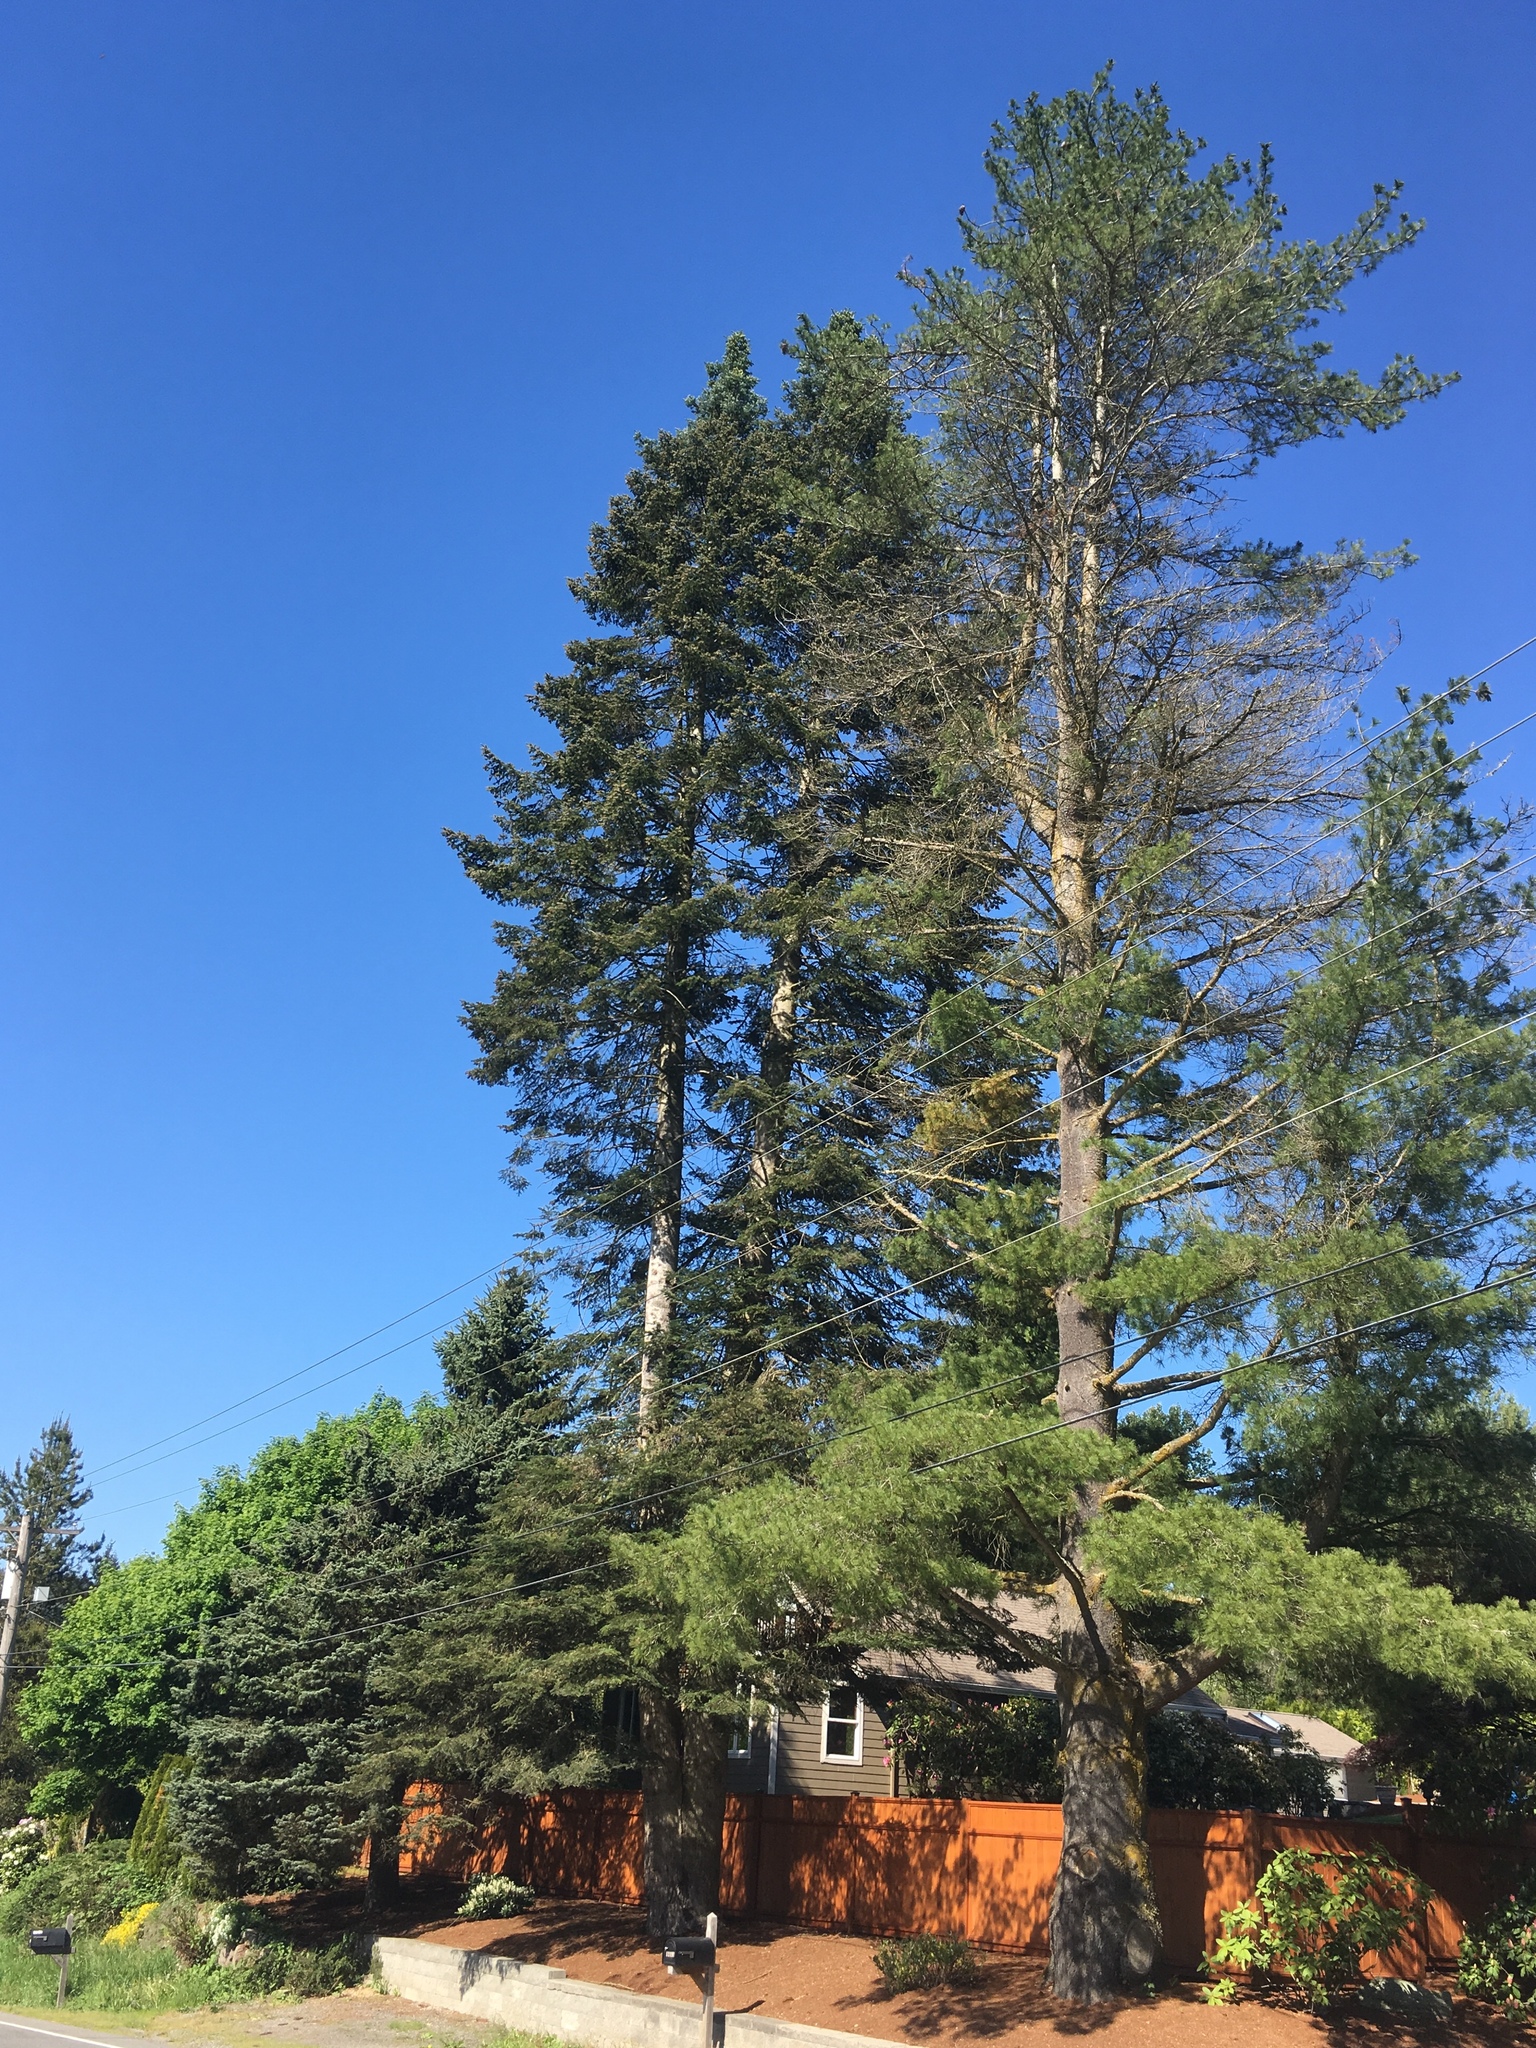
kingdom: Plantae
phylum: Tracheophyta
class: Pinopsida
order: Pinales
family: Pinaceae
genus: Abies
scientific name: Abies grandis
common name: Giant fir
